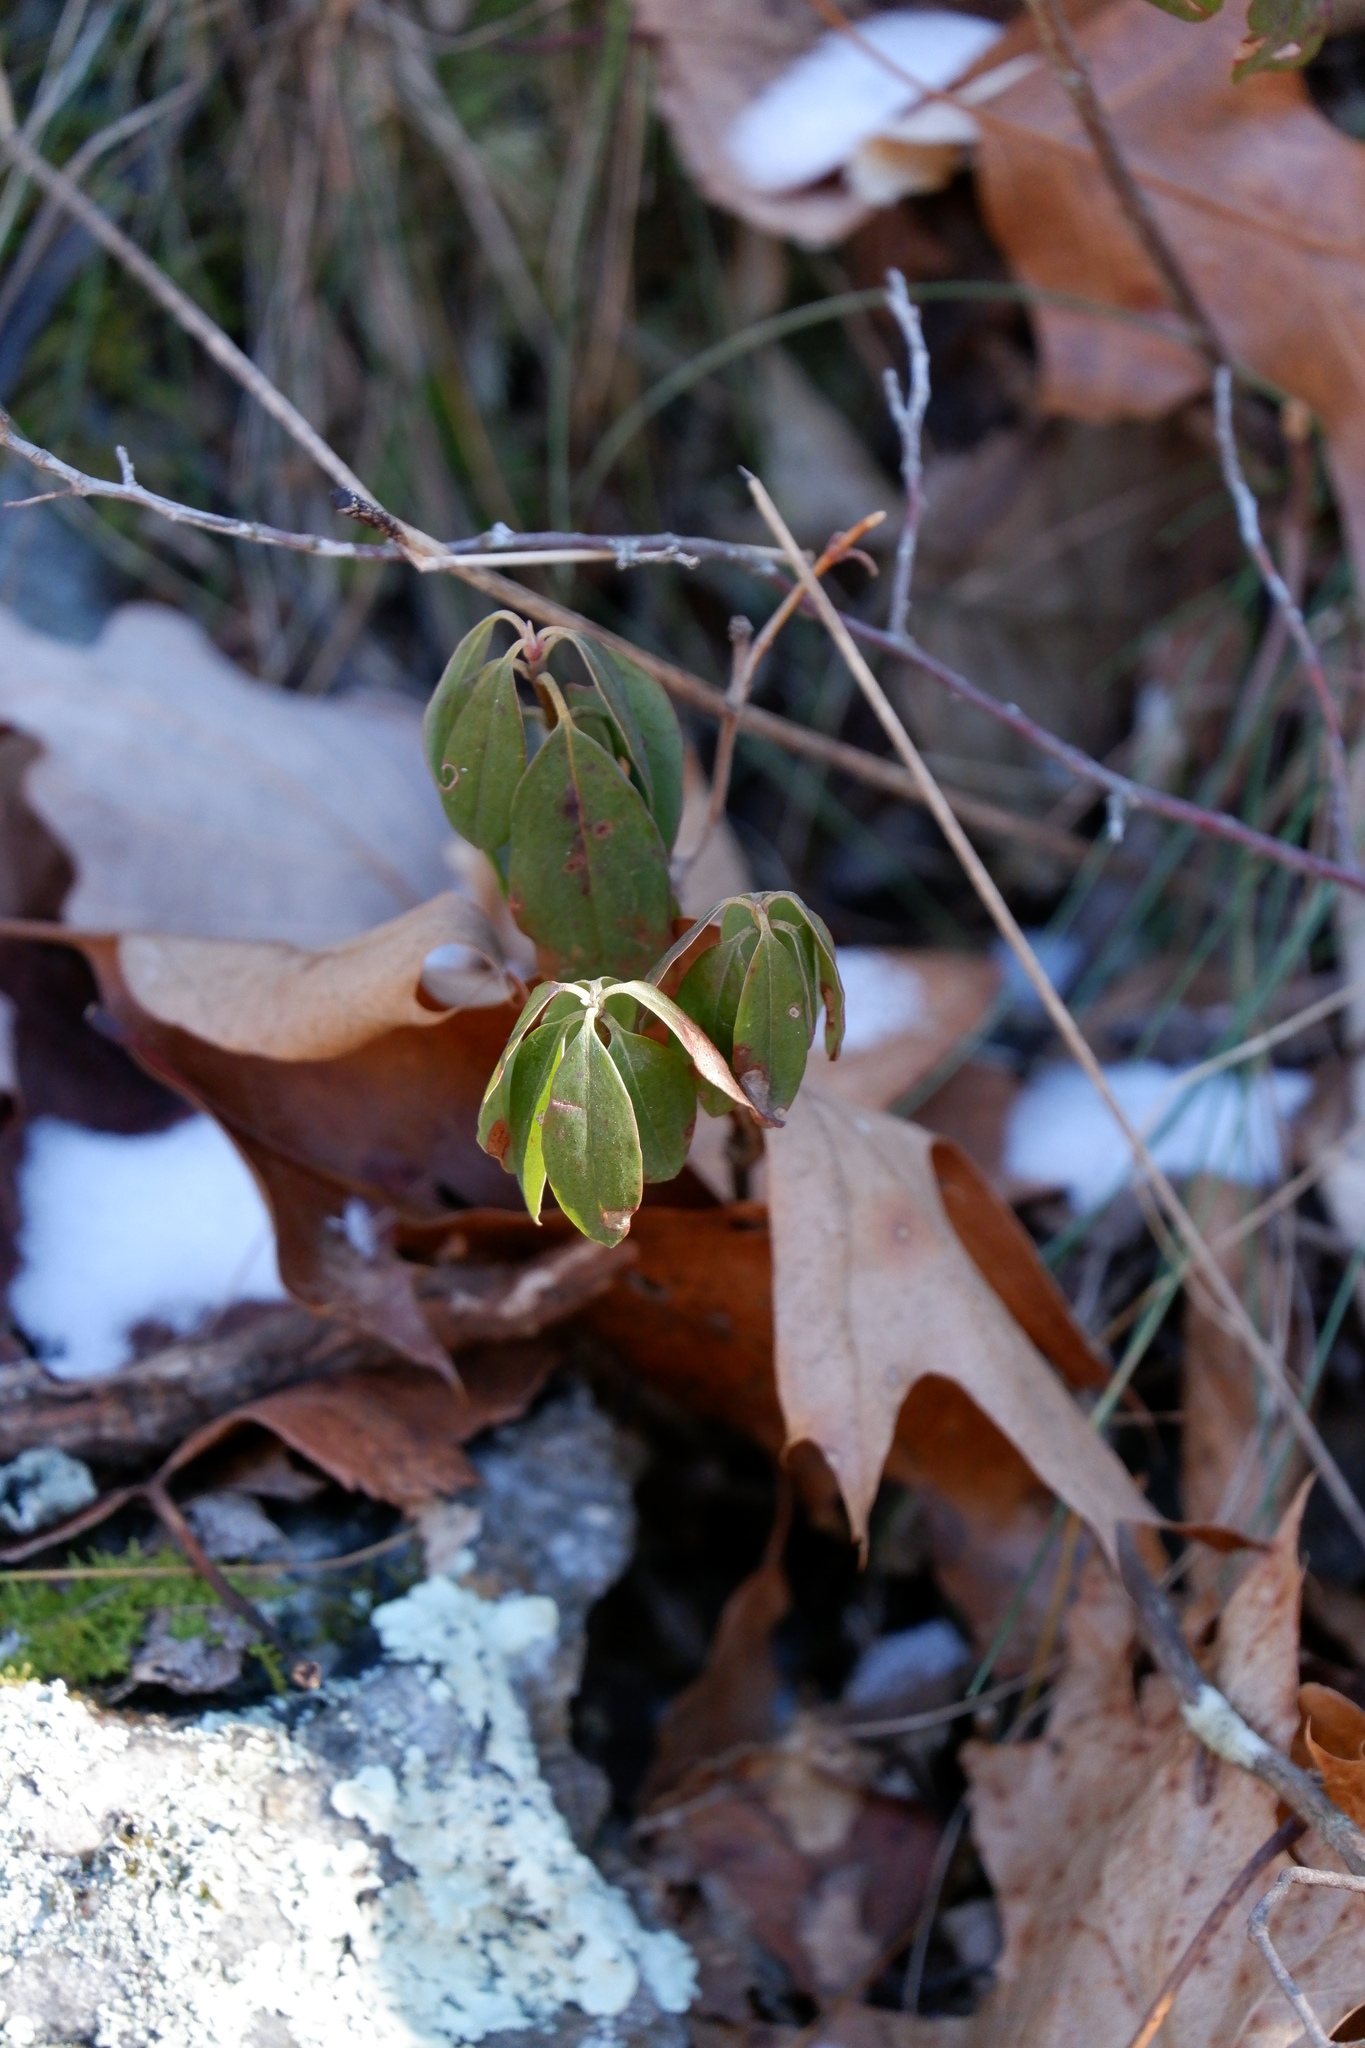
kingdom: Plantae
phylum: Tracheophyta
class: Magnoliopsida
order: Ericales
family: Ericaceae
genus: Kalmia
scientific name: Kalmia angustifolia
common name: Sheep-laurel
